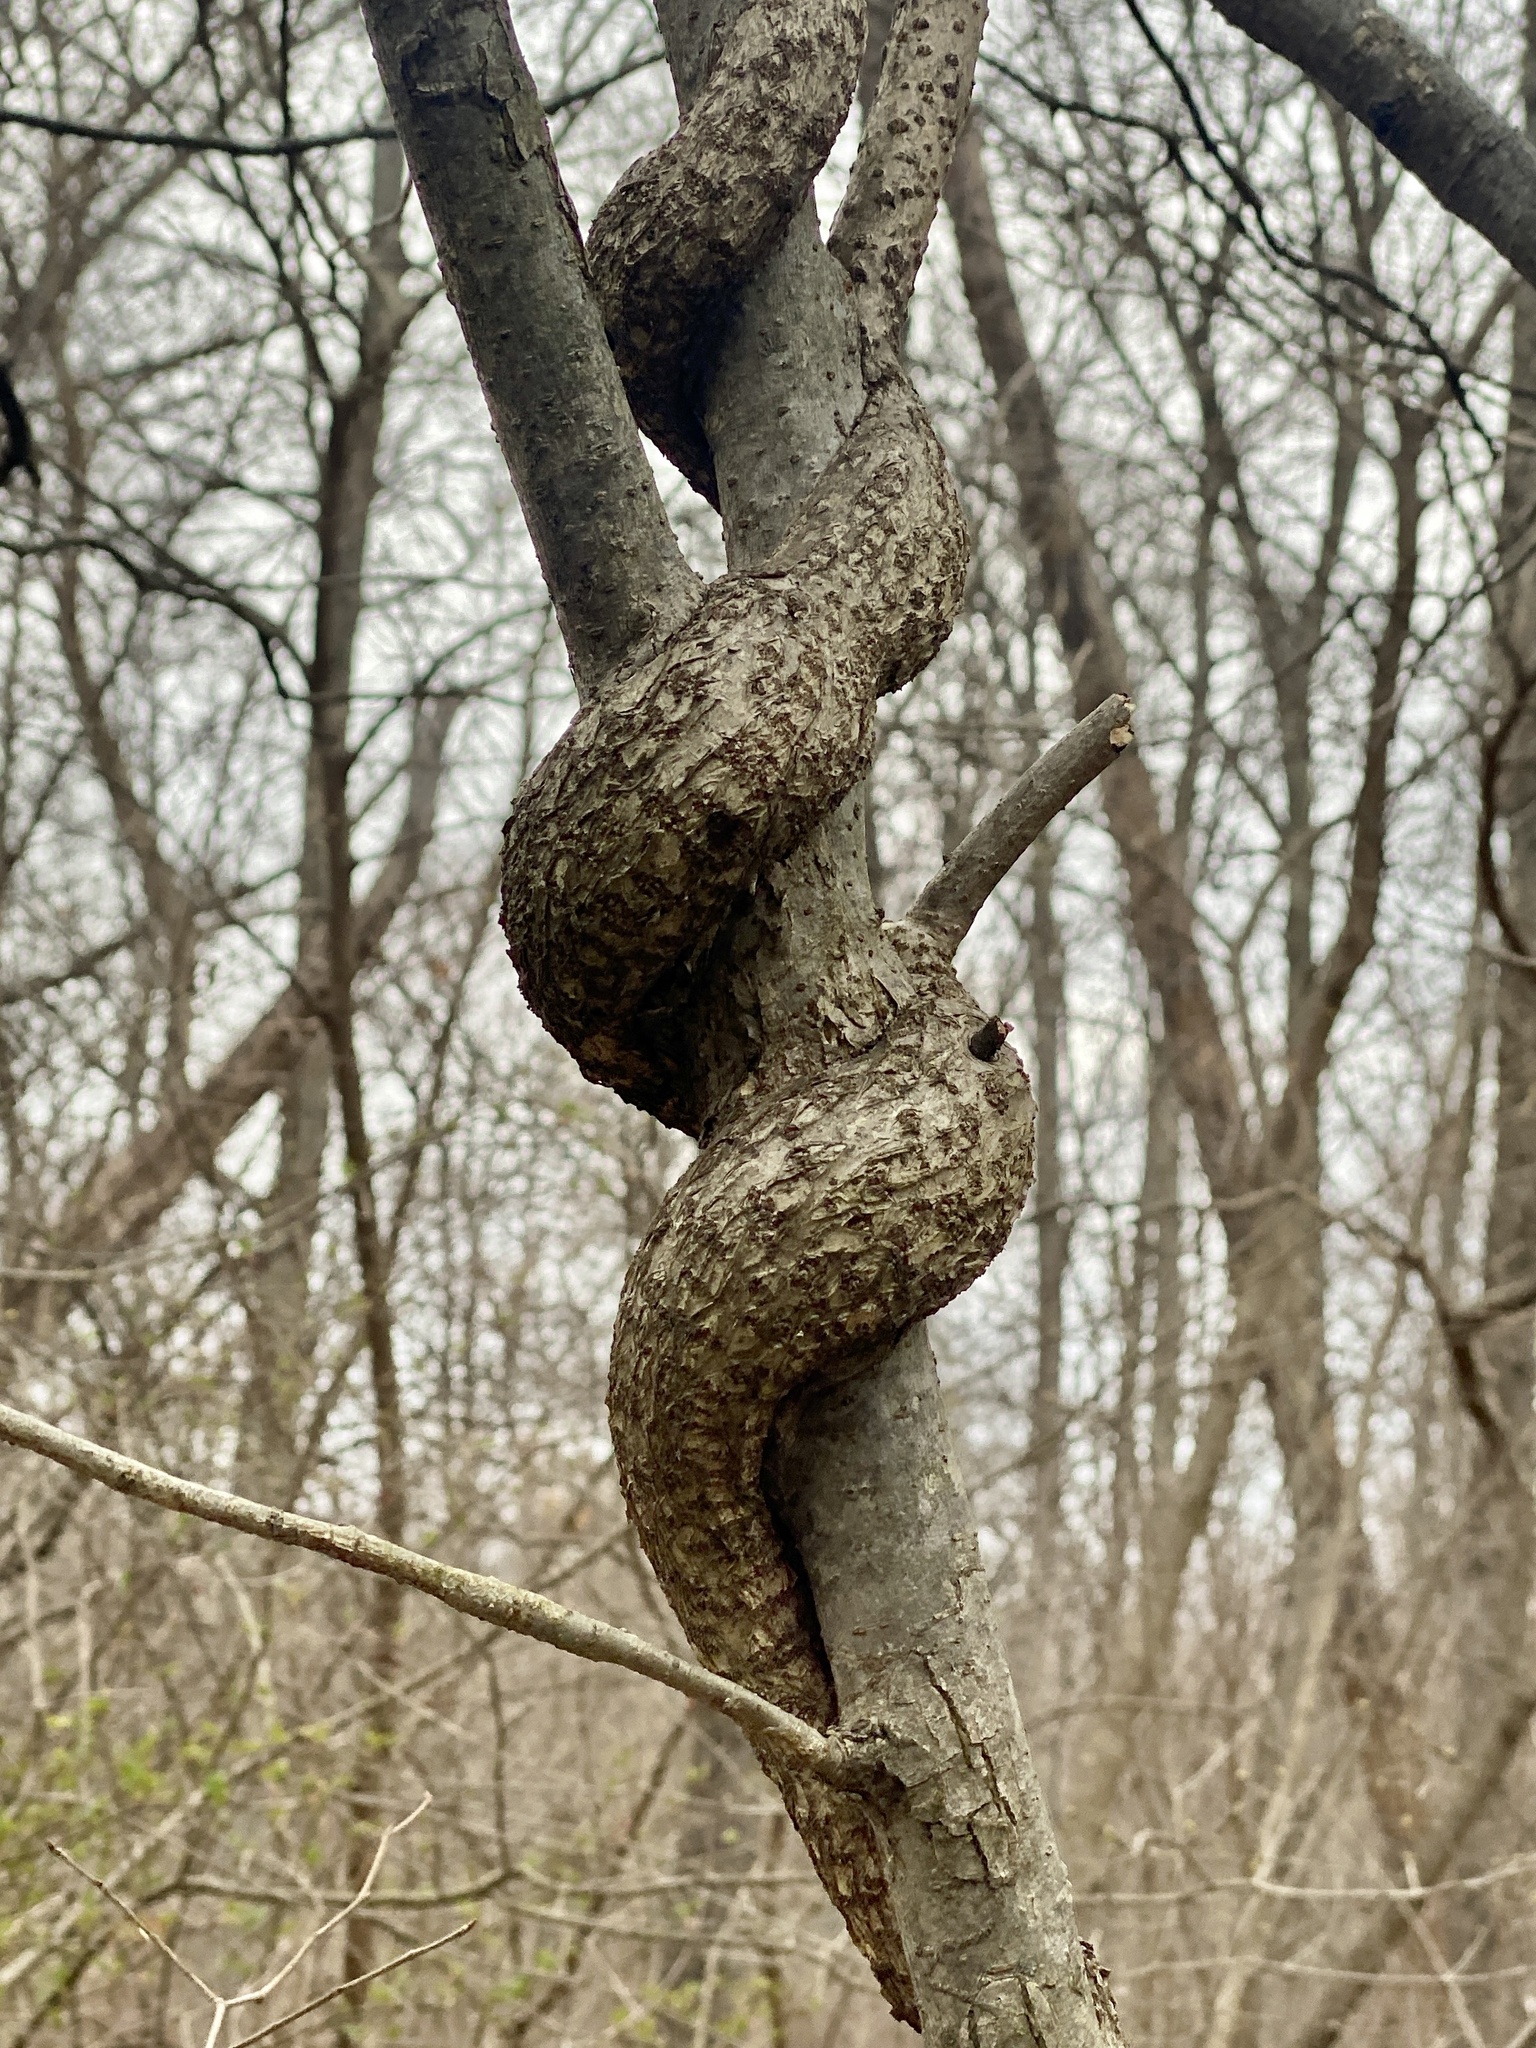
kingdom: Plantae
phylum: Tracheophyta
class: Magnoliopsida
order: Celastrales
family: Celastraceae
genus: Celastrus
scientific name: Celastrus orbiculatus
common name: Oriental bittersweet
